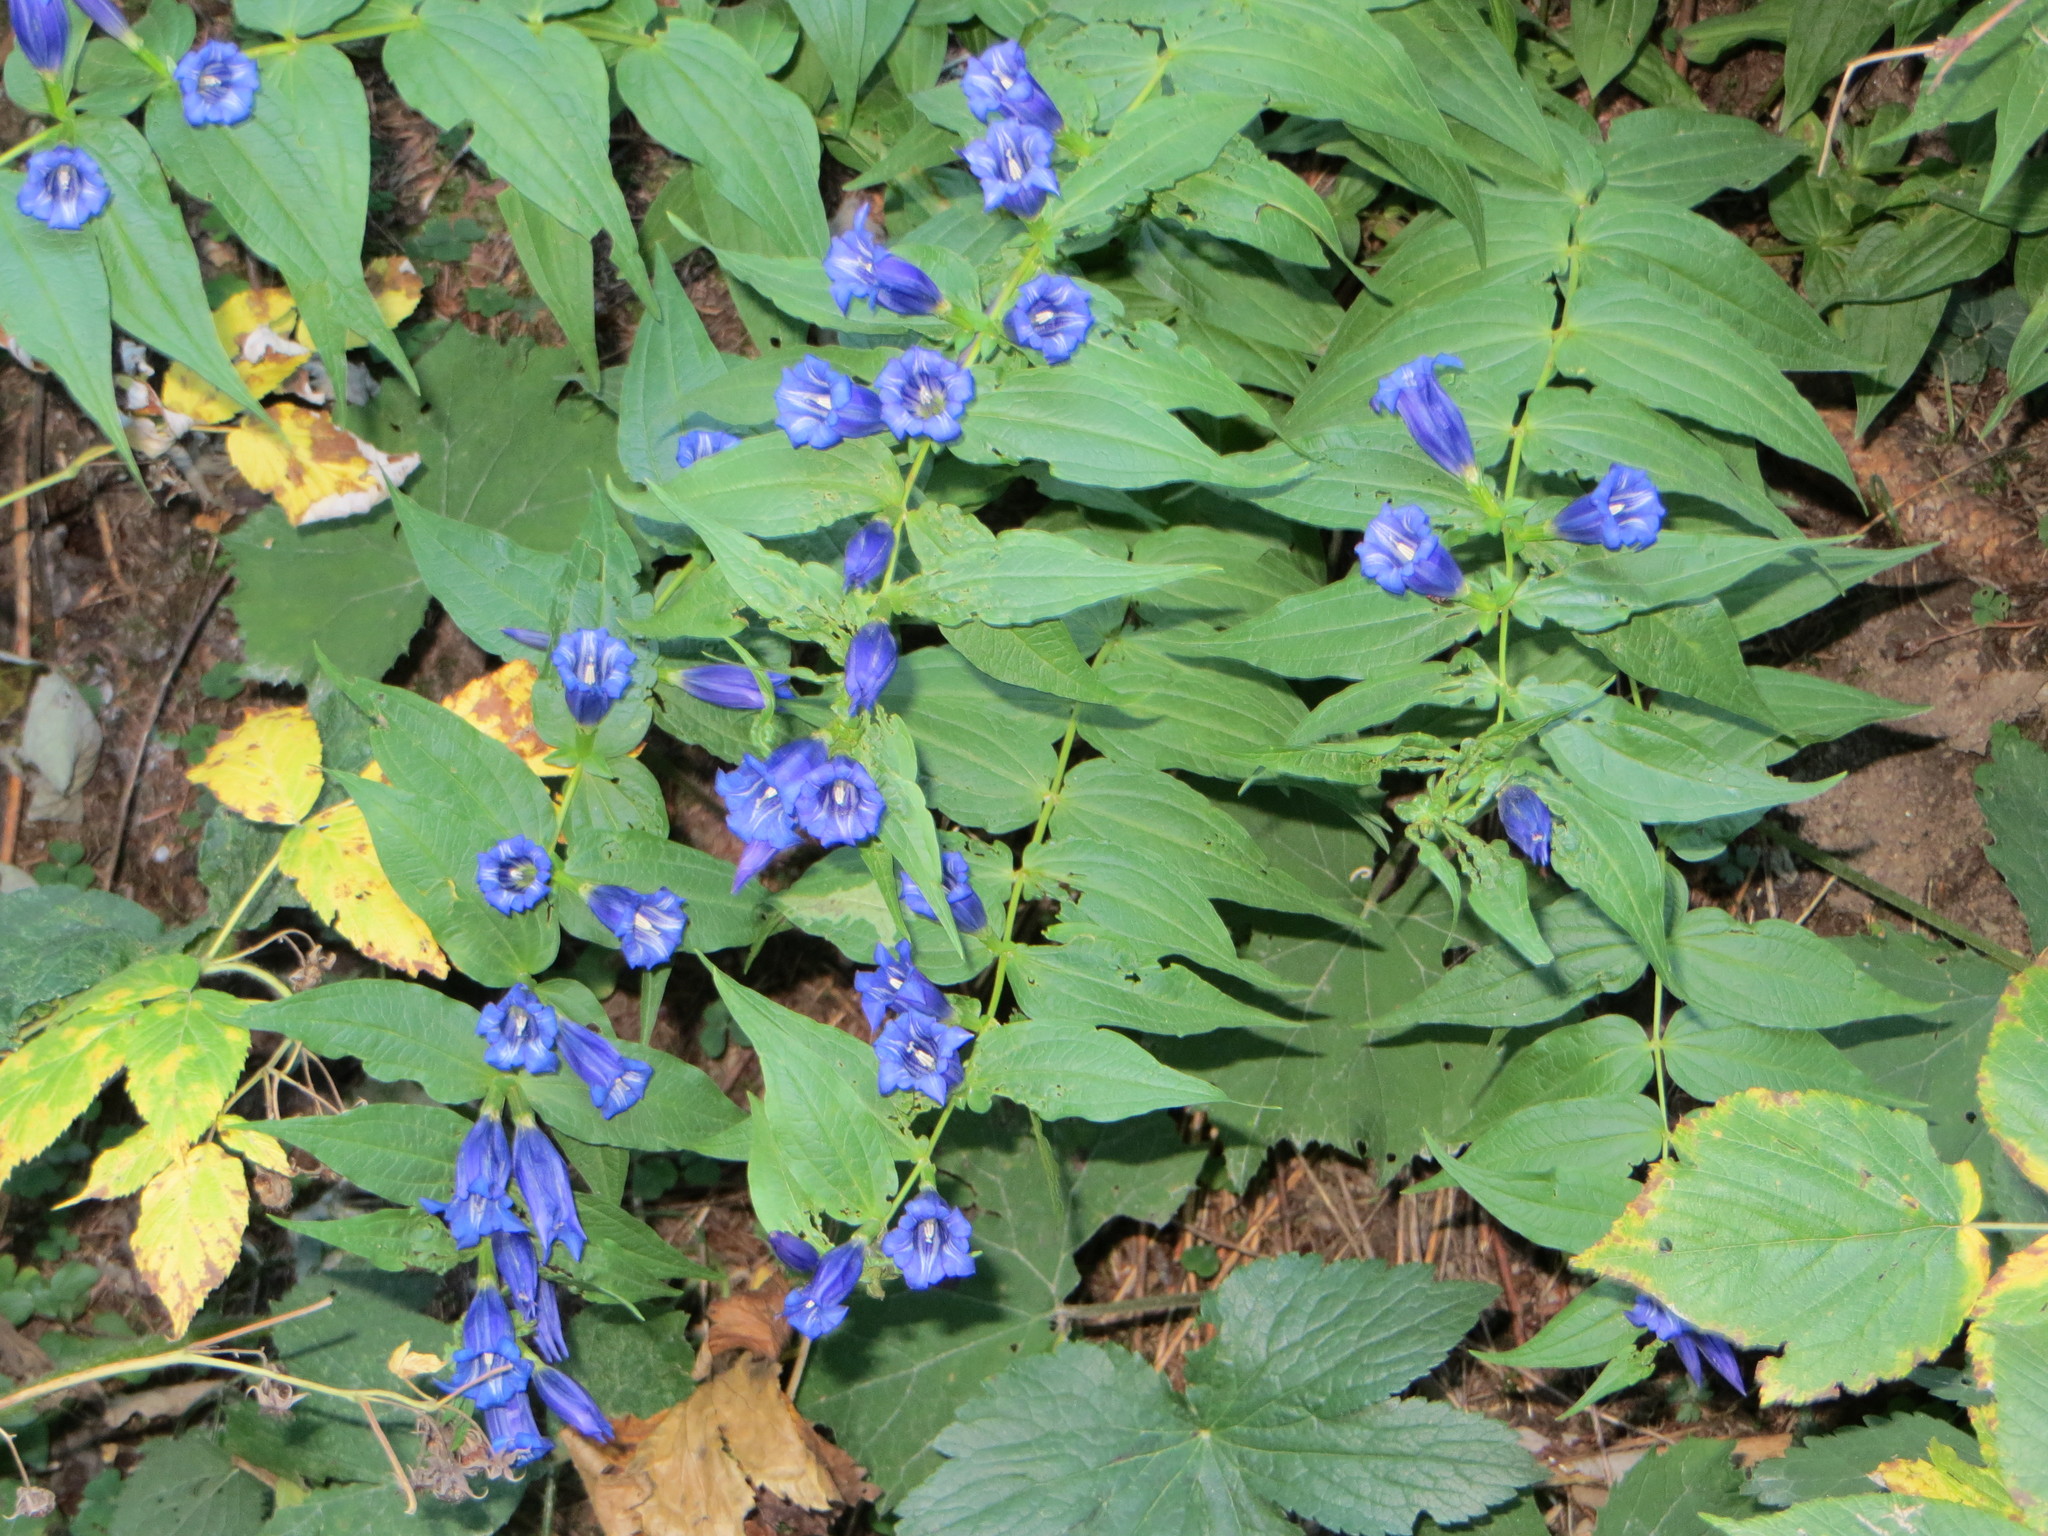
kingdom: Plantae
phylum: Tracheophyta
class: Magnoliopsida
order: Gentianales
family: Gentianaceae
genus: Gentiana
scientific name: Gentiana asclepiadea
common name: Willow gentian
